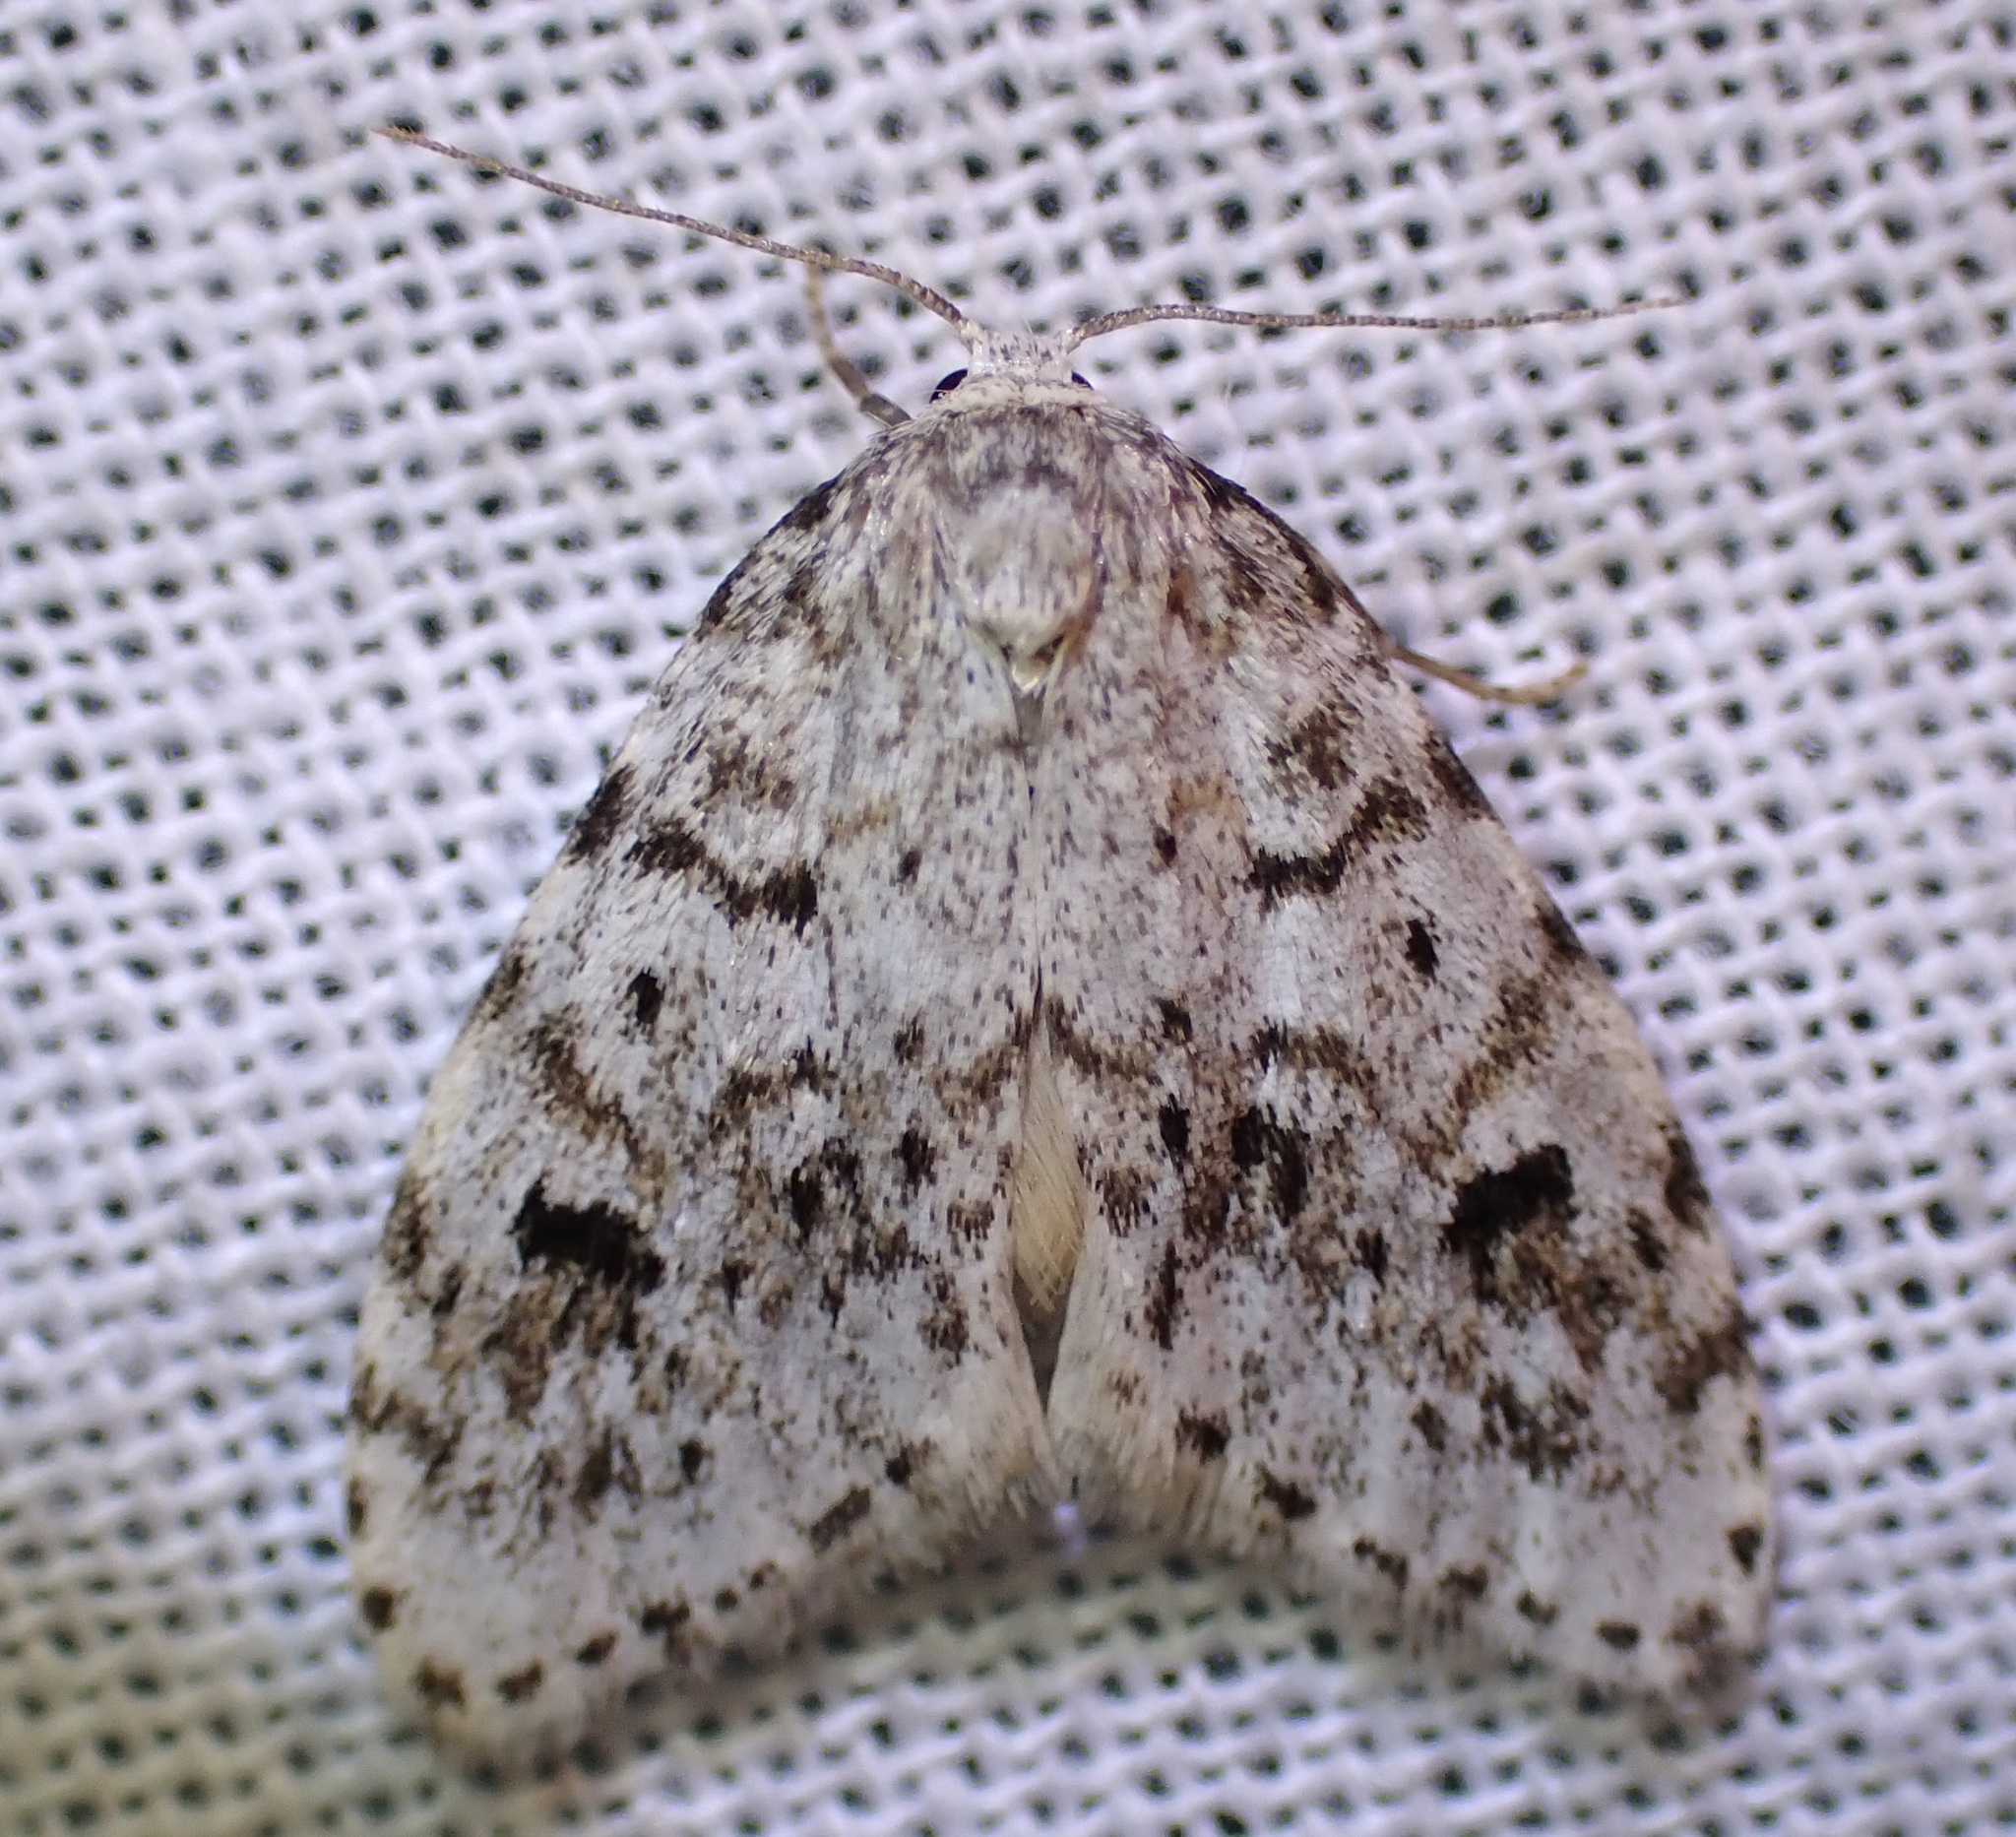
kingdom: Animalia
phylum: Arthropoda
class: Insecta
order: Lepidoptera
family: Erebidae
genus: Clemensia
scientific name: Clemensia umbrata
